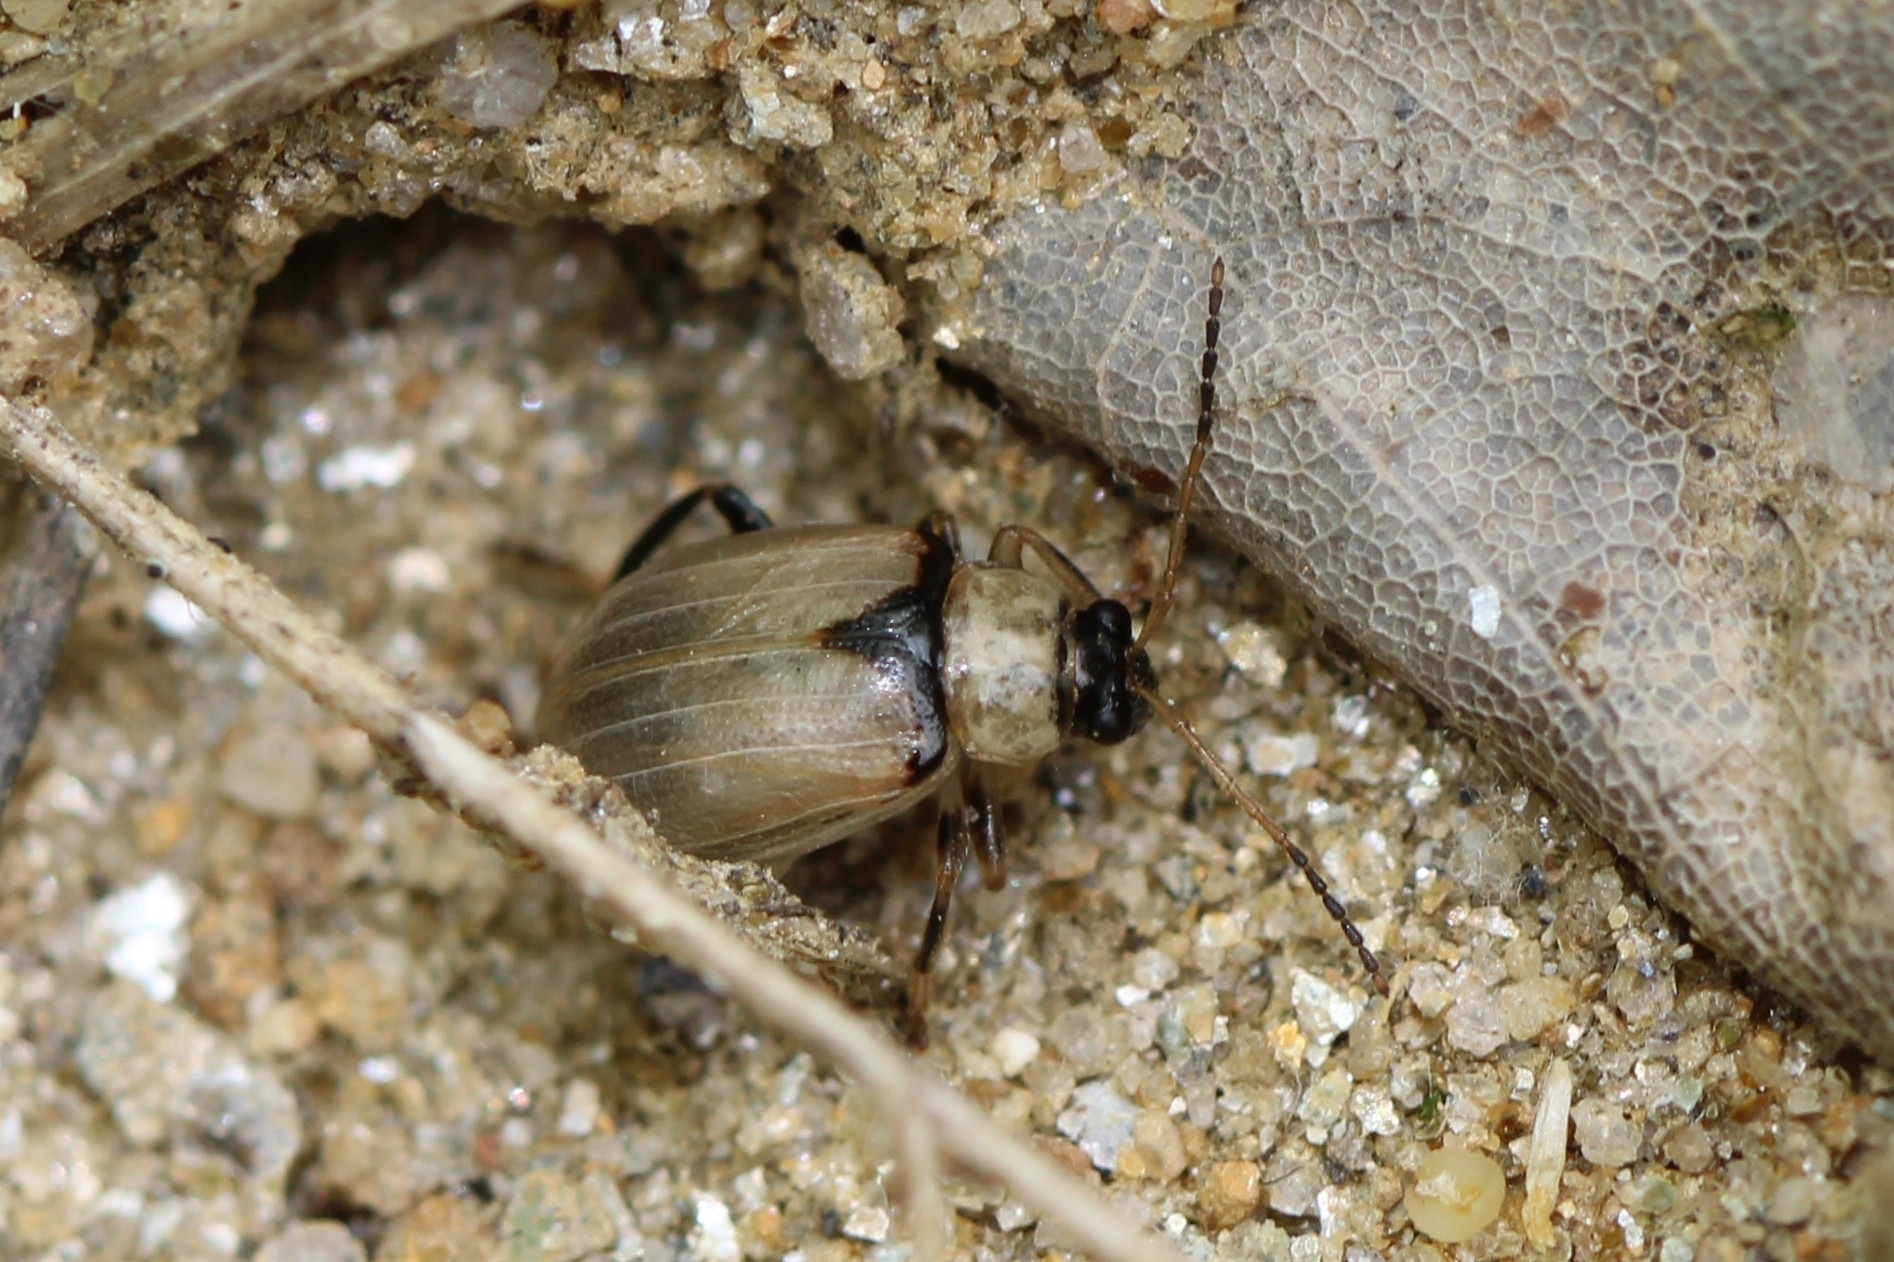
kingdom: Animalia
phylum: Arthropoda
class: Insecta
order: Coleoptera
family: Chrysomelidae
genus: Cerotoma
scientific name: Cerotoma trifurcata
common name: Bean leaf beetle
